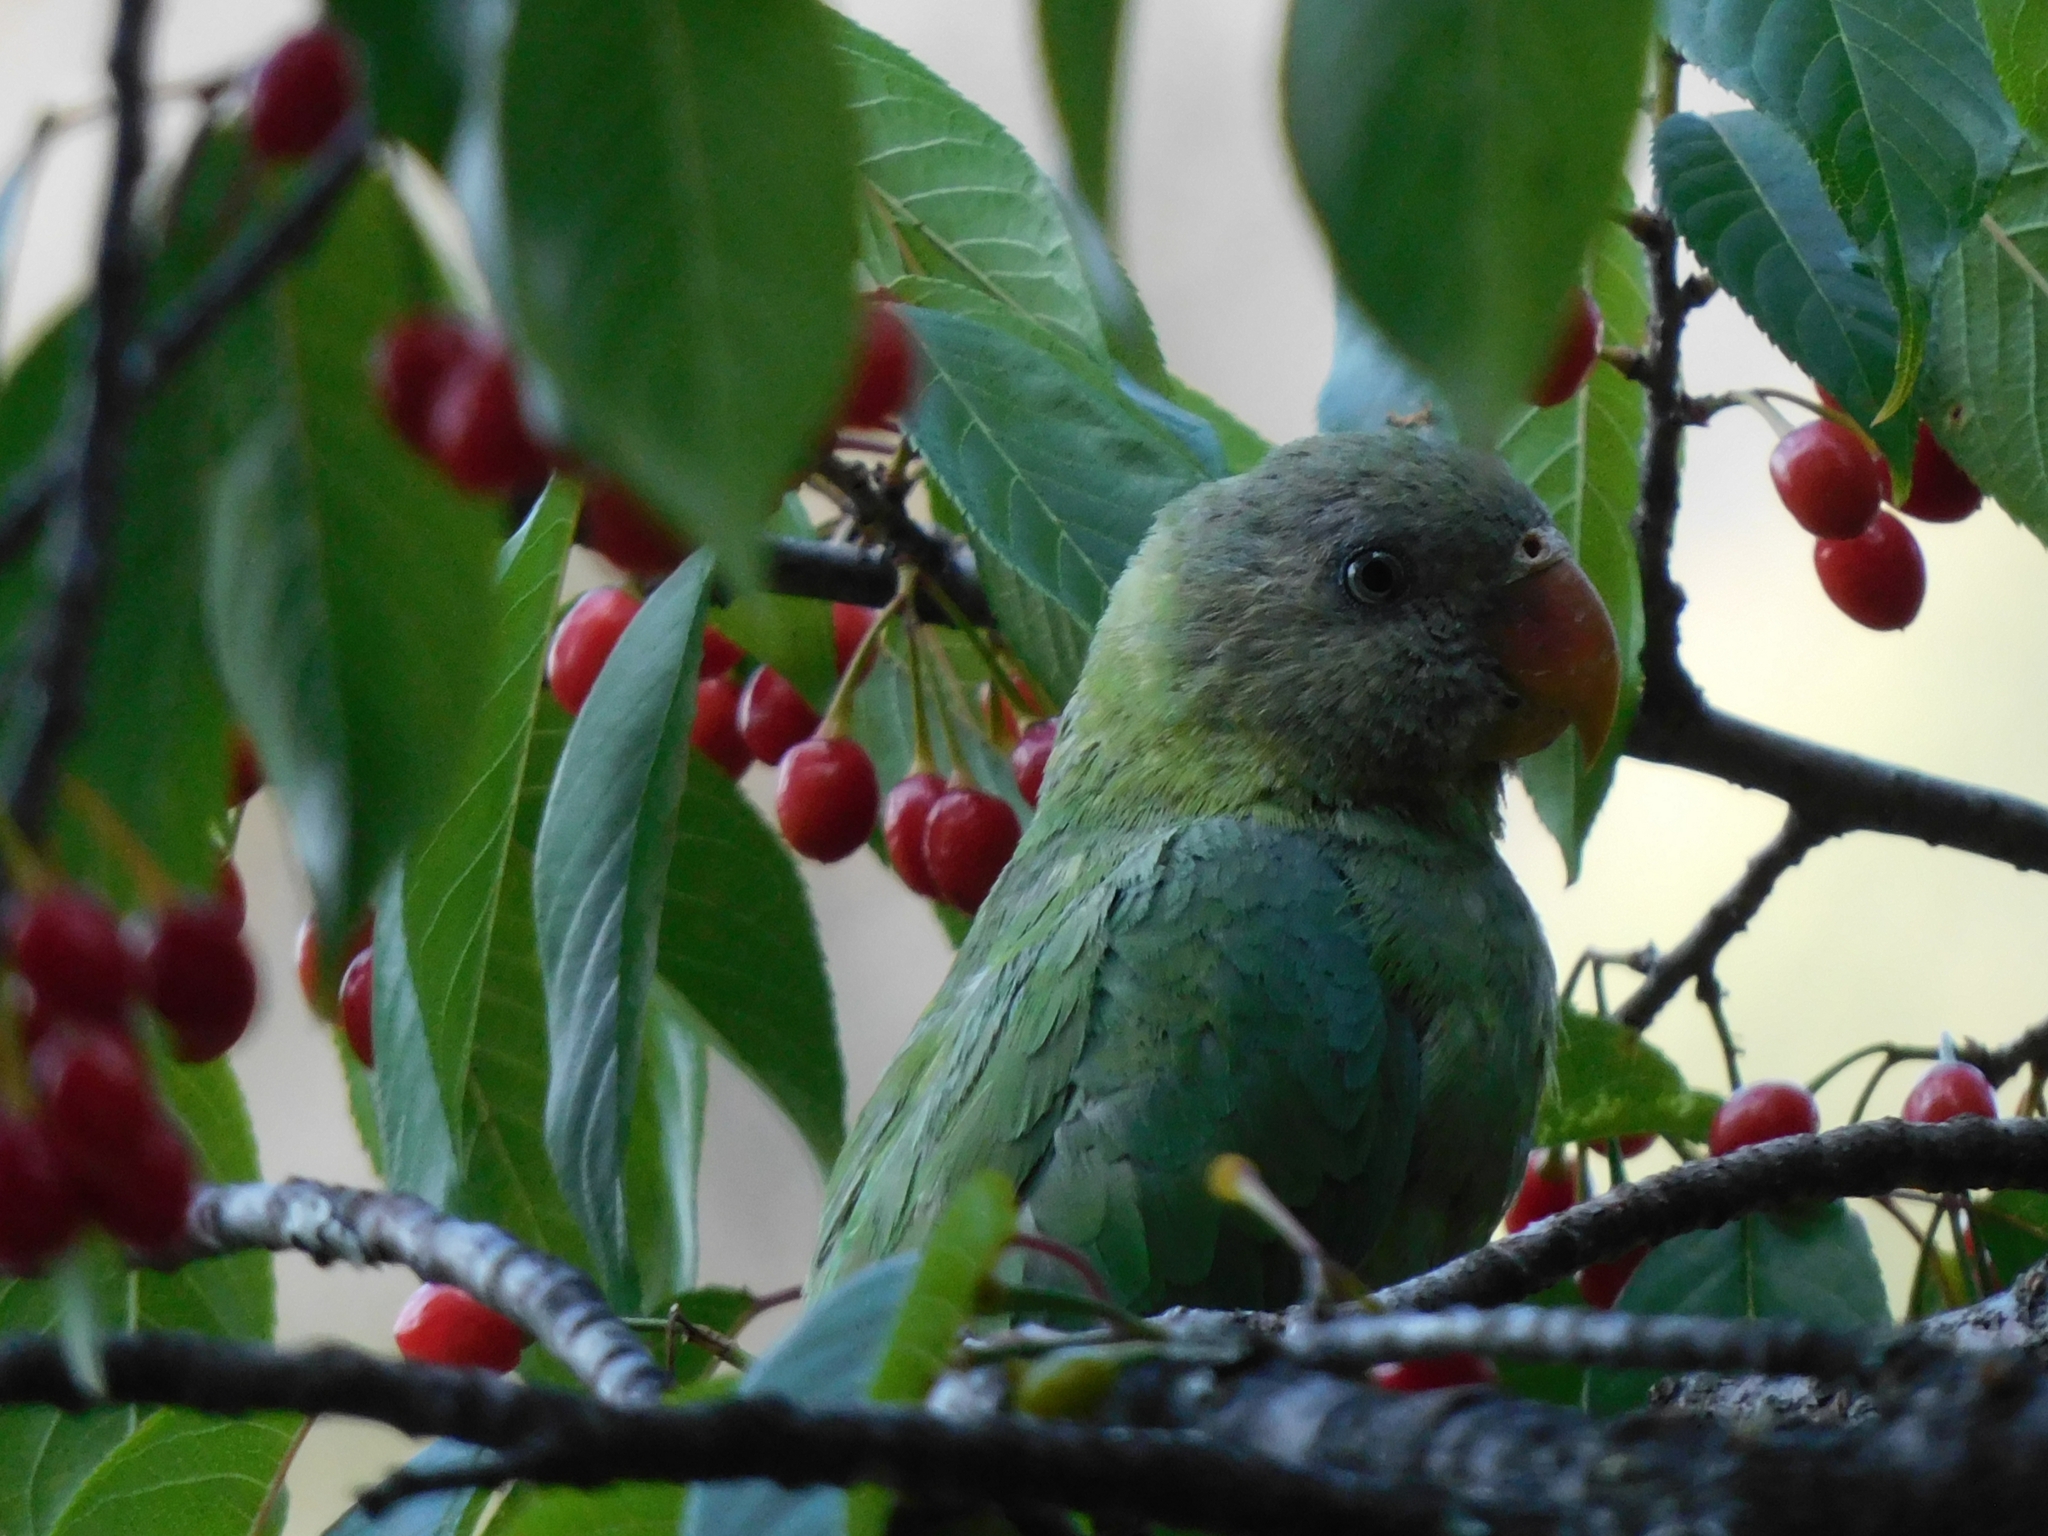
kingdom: Animalia
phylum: Chordata
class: Aves
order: Psittaciformes
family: Psittacidae
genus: Psittacula
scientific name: Psittacula himalayana
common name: Slaty-headed parakeet
